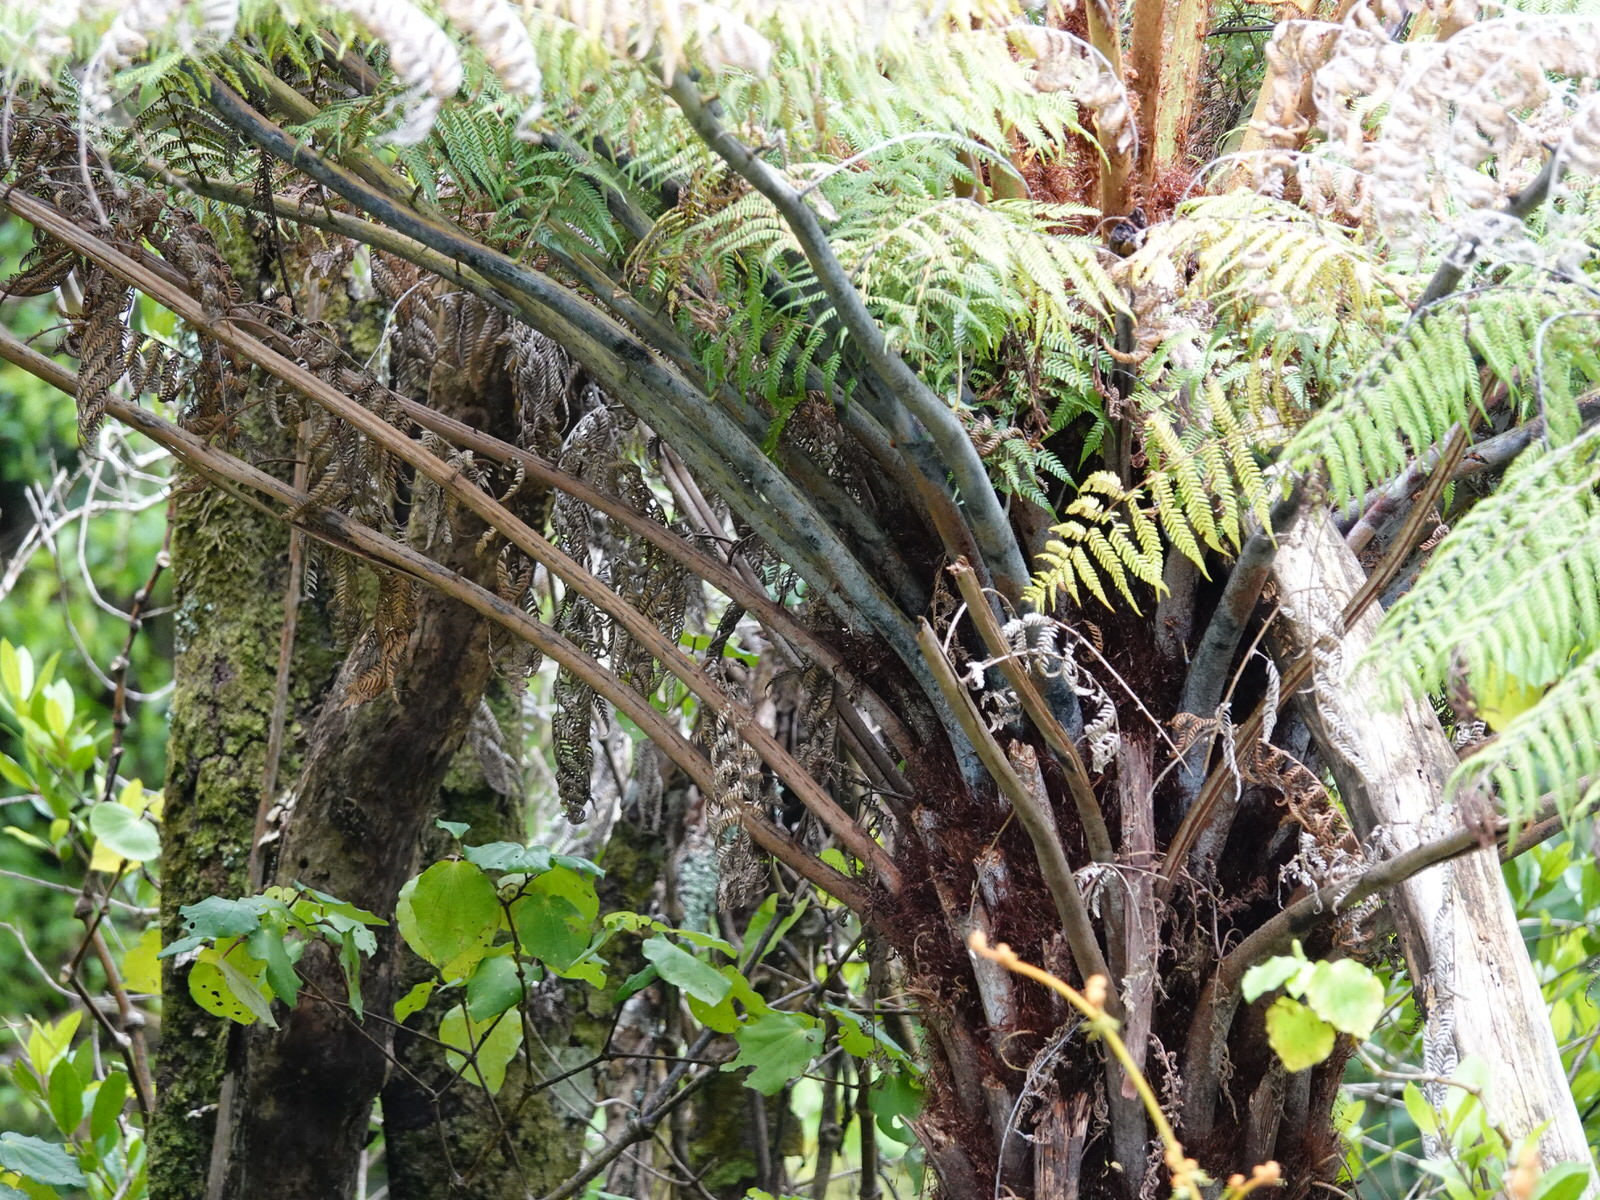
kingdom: Plantae
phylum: Tracheophyta
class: Polypodiopsida
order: Cyatheales
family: Cyatheaceae
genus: Alsophila
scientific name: Alsophila dealbata
